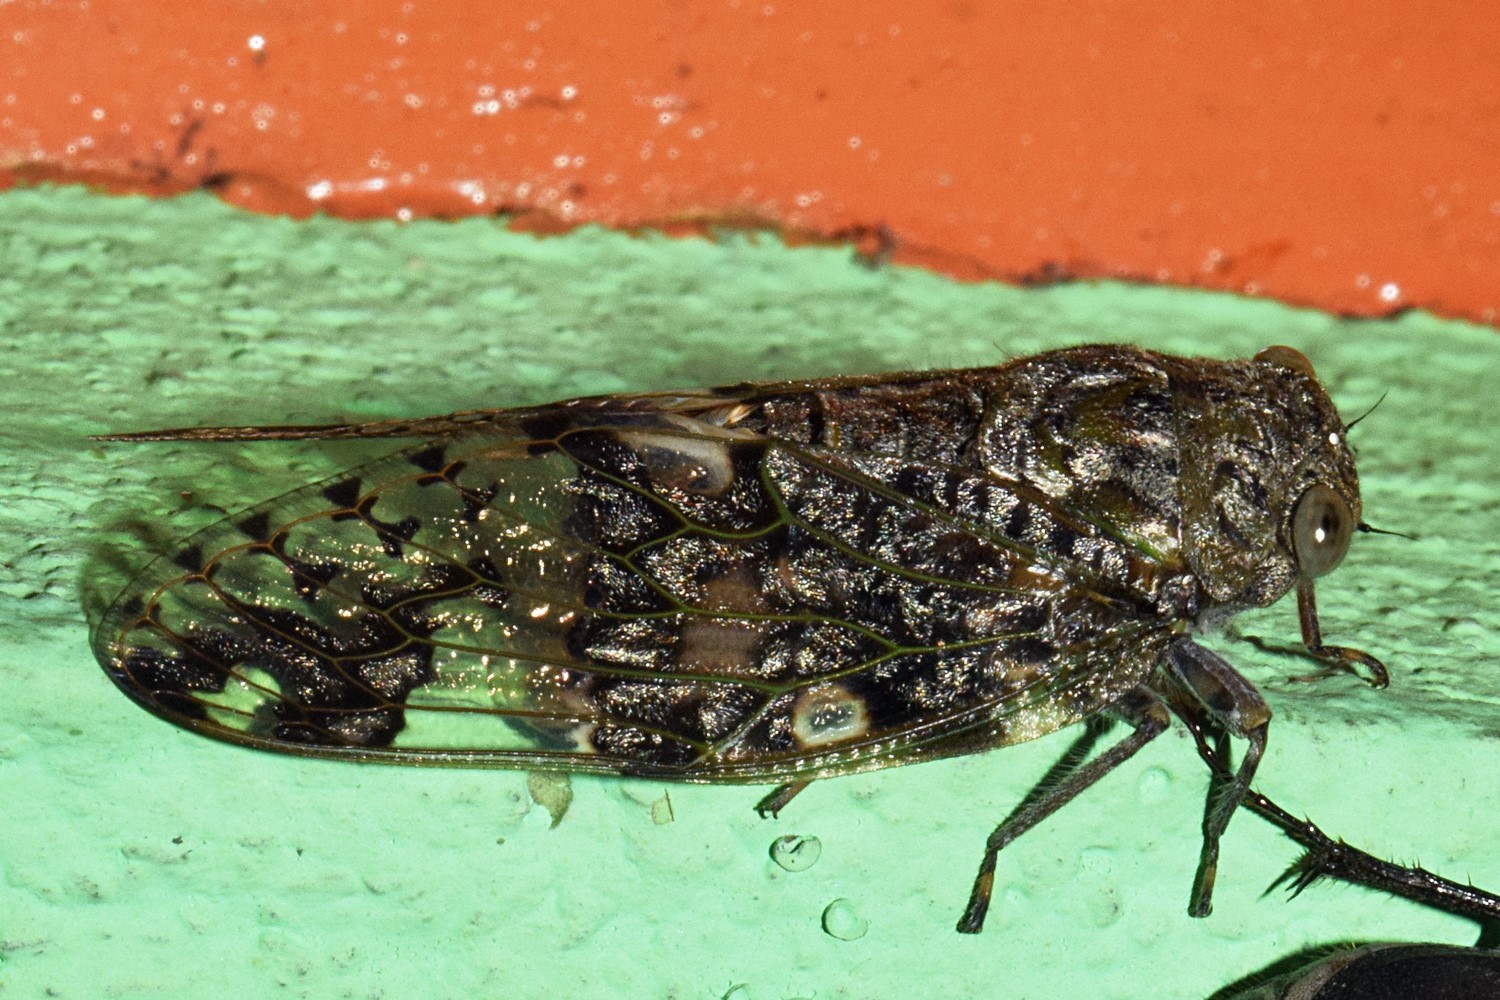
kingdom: Animalia
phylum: Arthropoda
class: Insecta
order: Hemiptera
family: Cicadidae
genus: Platypleura
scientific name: Platypleura assamensis
